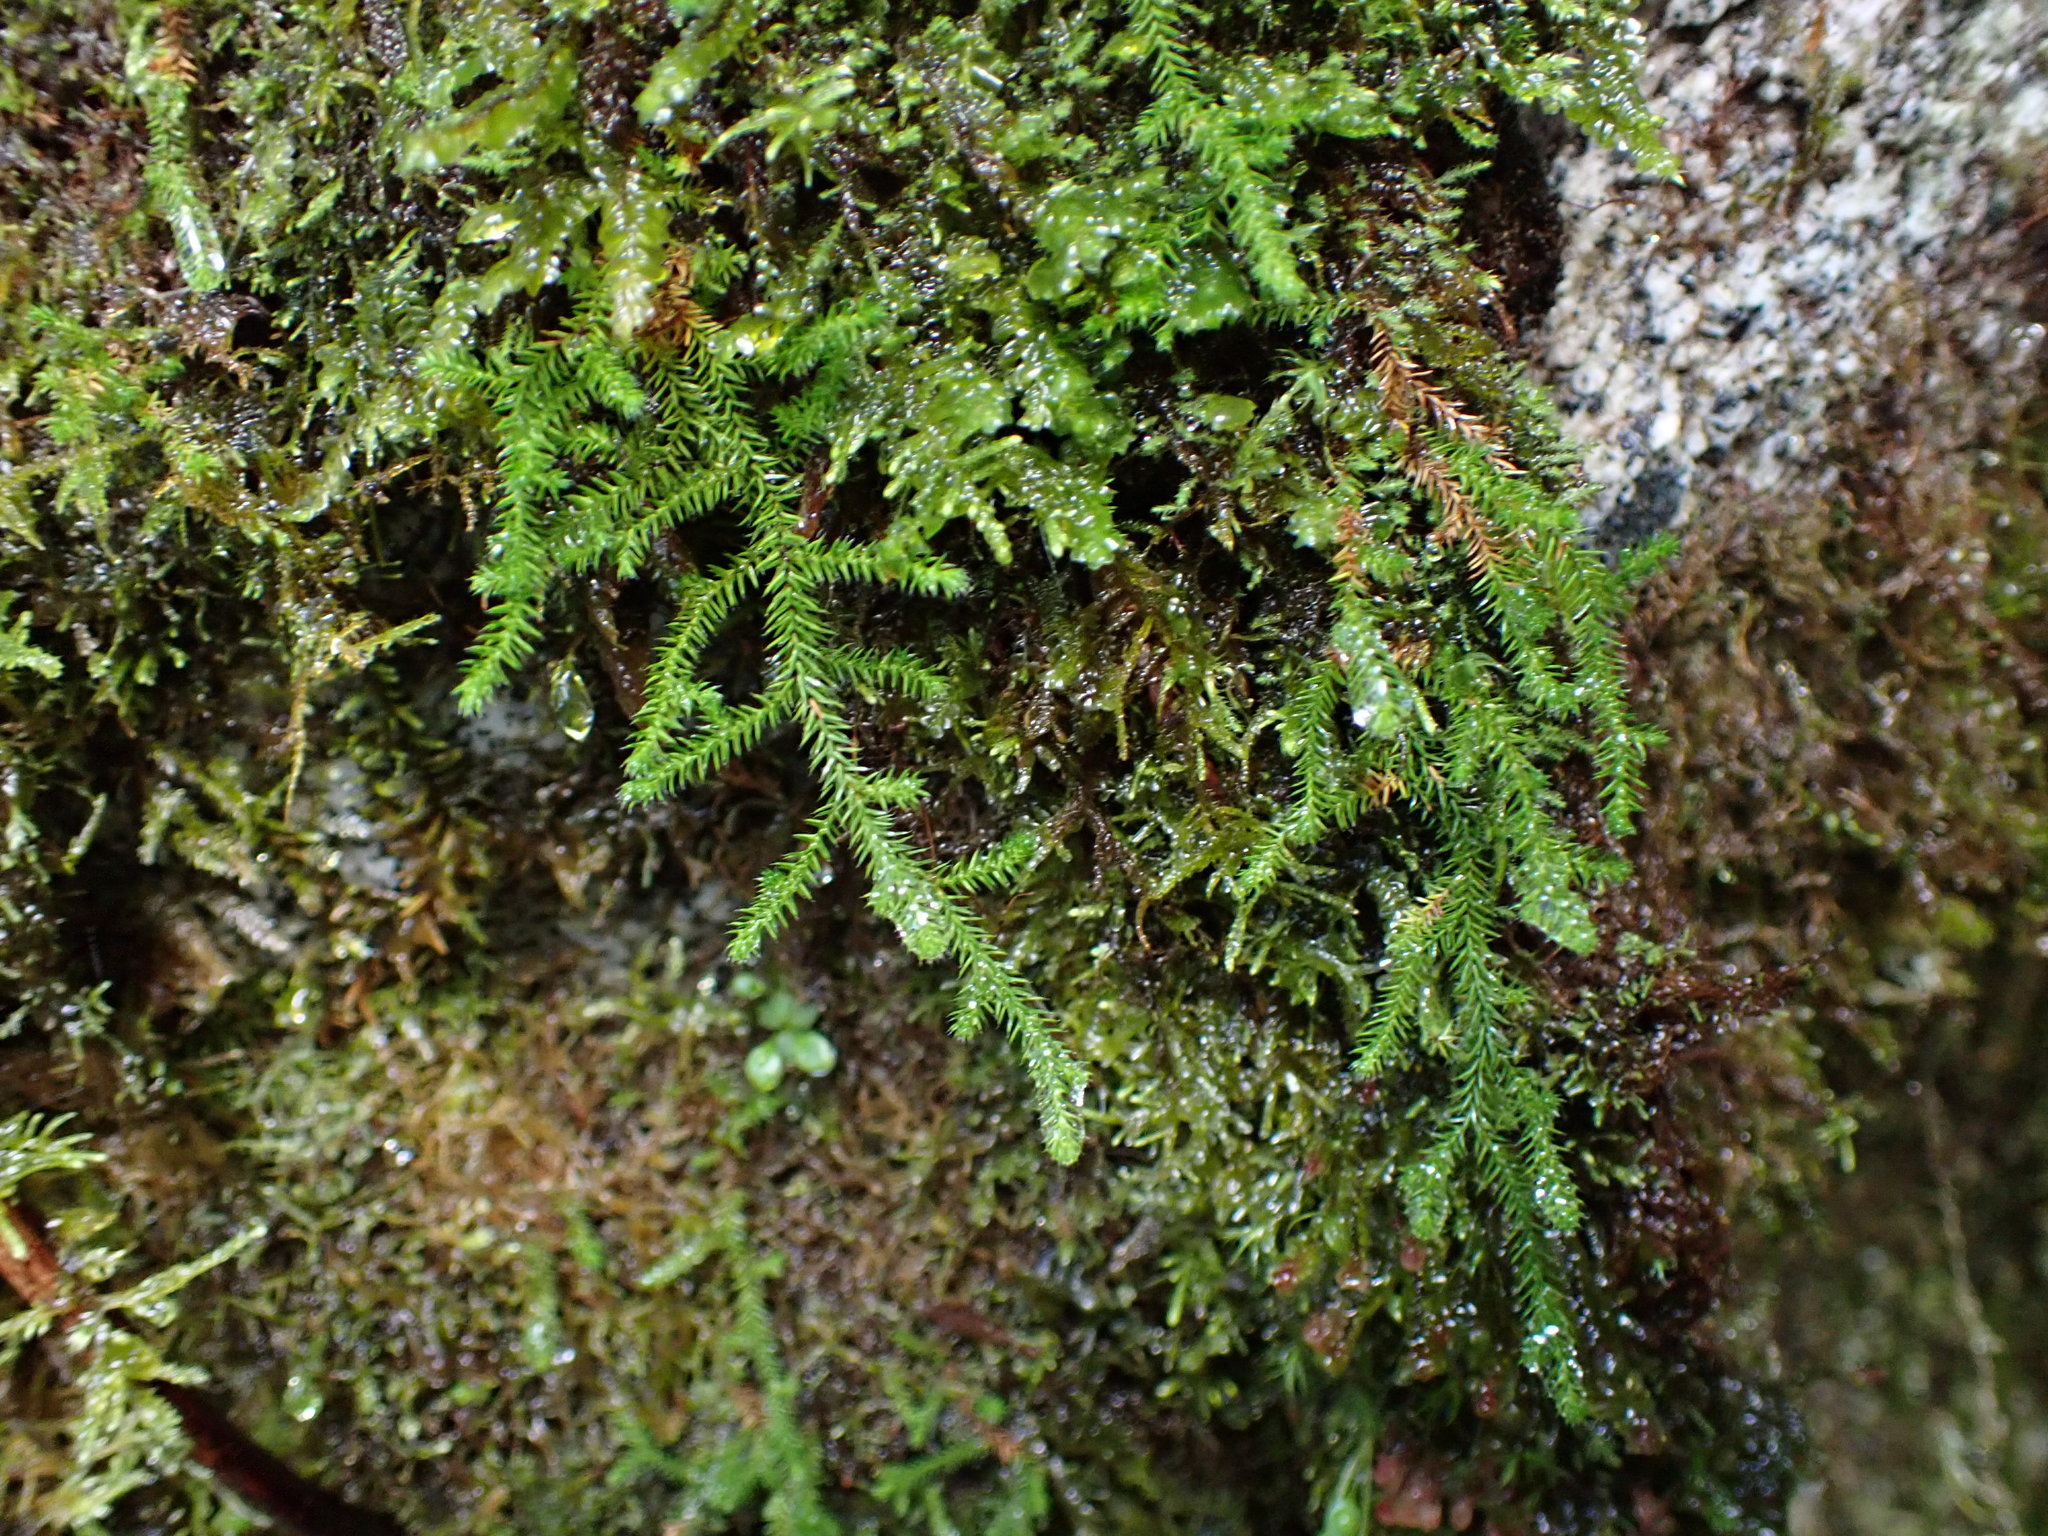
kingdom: Plantae
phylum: Tracheophyta
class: Lycopodiopsida
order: Selaginellales
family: Selaginellaceae
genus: Selaginella
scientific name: Selaginella wallacei
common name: Wallace's selaginella
